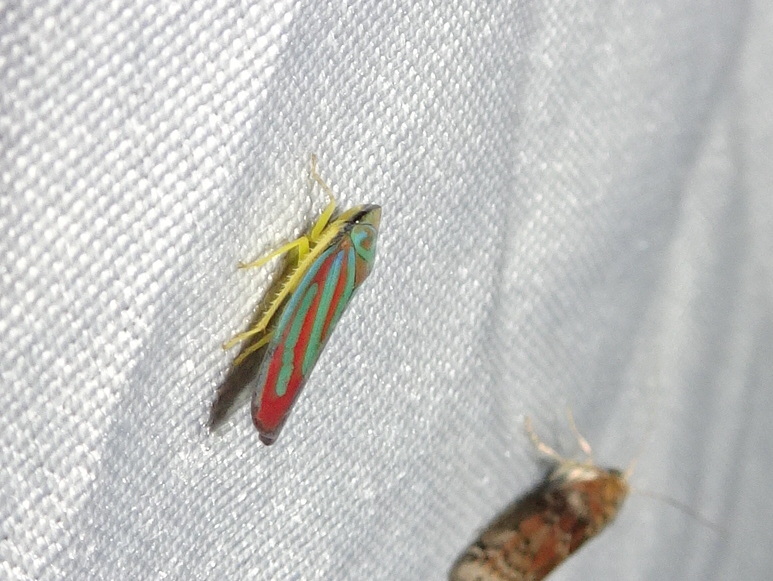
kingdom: Animalia
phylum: Arthropoda
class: Insecta
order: Hemiptera
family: Cicadellidae
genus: Graphocephala
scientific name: Graphocephala coccinea
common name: Candy-striped leafhopper
